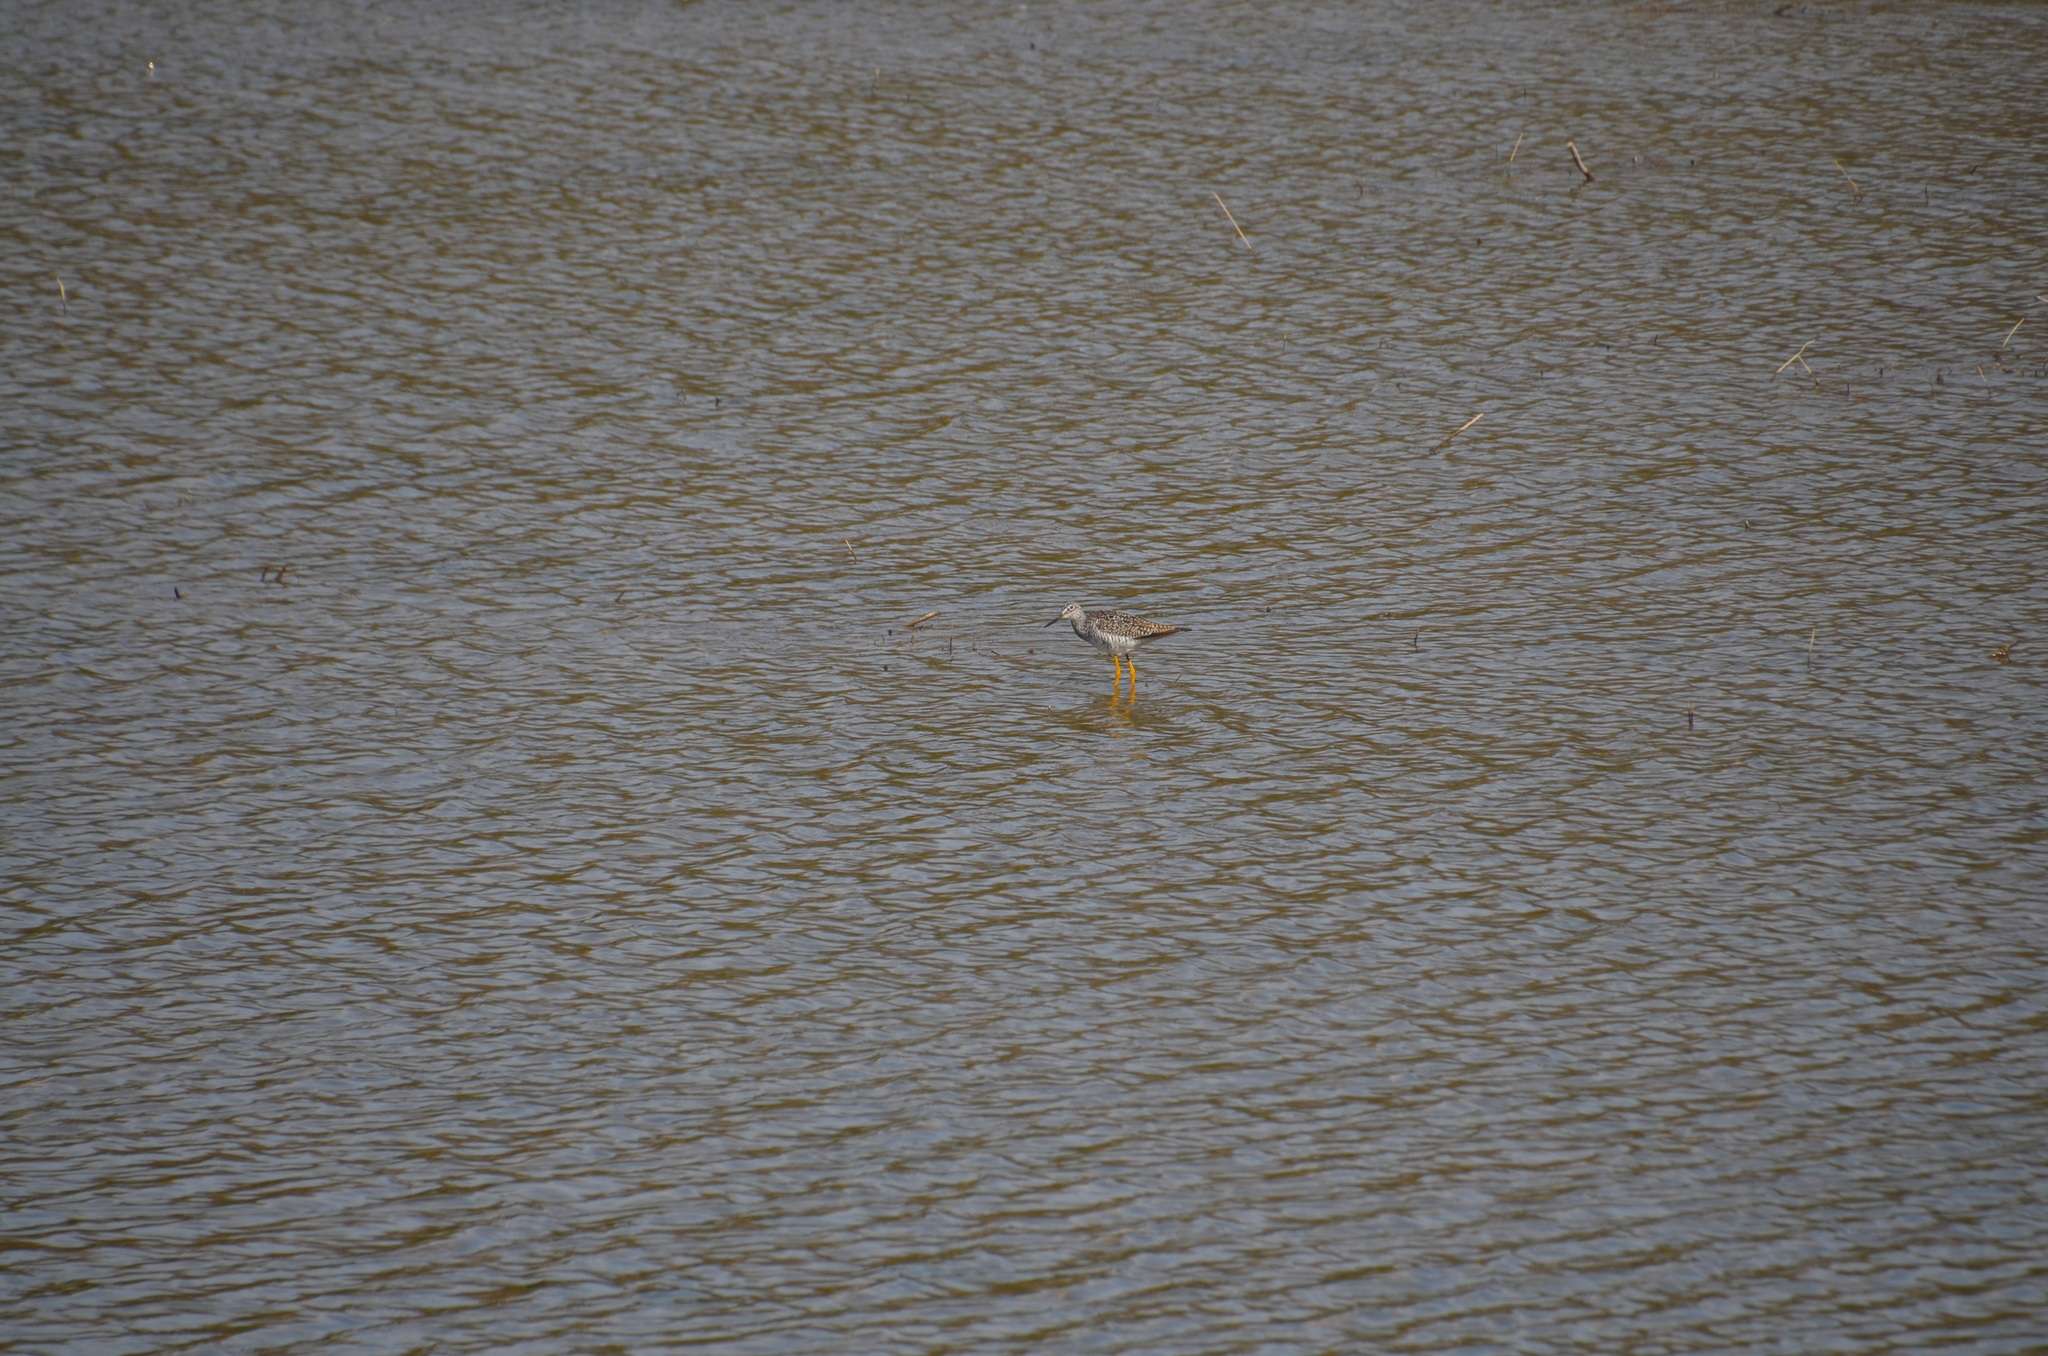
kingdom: Animalia
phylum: Chordata
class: Aves
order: Charadriiformes
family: Scolopacidae
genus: Tringa
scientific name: Tringa melanoleuca
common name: Greater yellowlegs
